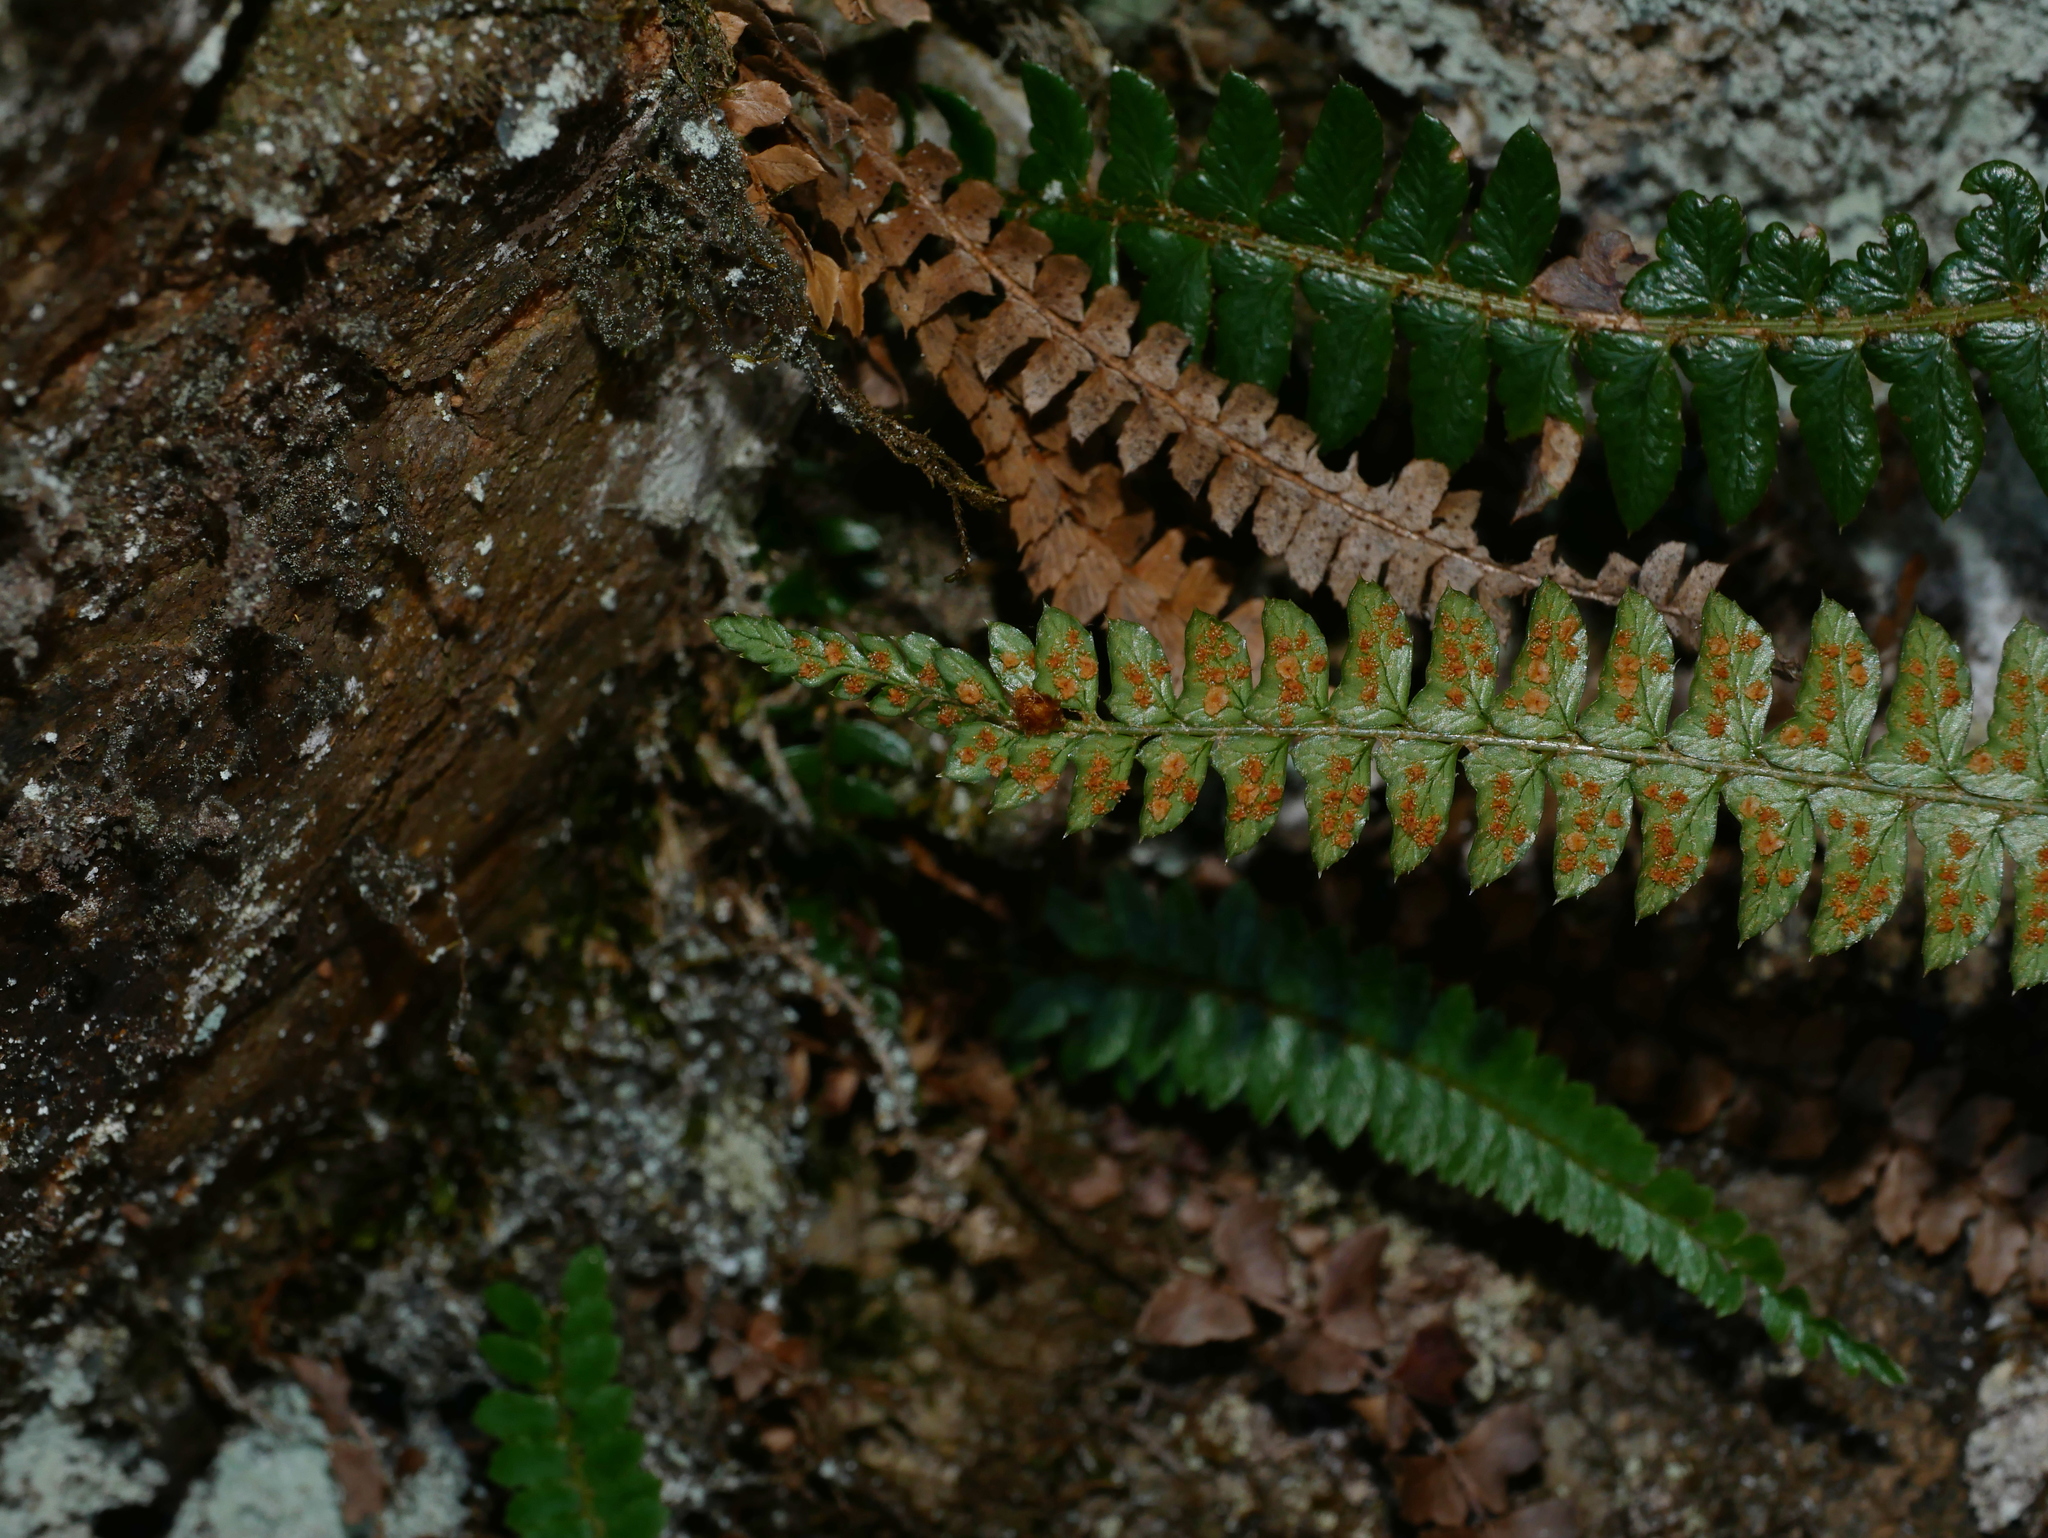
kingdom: Plantae
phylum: Tracheophyta
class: Polypodiopsida
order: Polypodiales
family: Dryopteridaceae
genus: Polystichum
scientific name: Polystichum levingei
